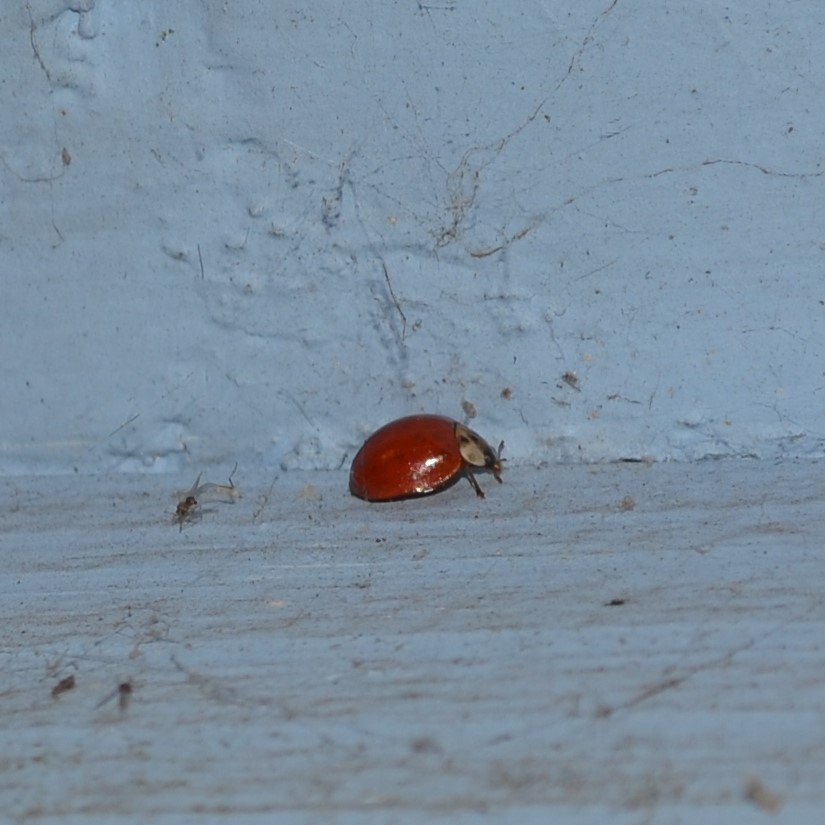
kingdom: Animalia
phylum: Arthropoda
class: Insecta
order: Coleoptera
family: Coccinellidae
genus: Harmonia
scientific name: Harmonia axyridis
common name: Harlequin ladybird
